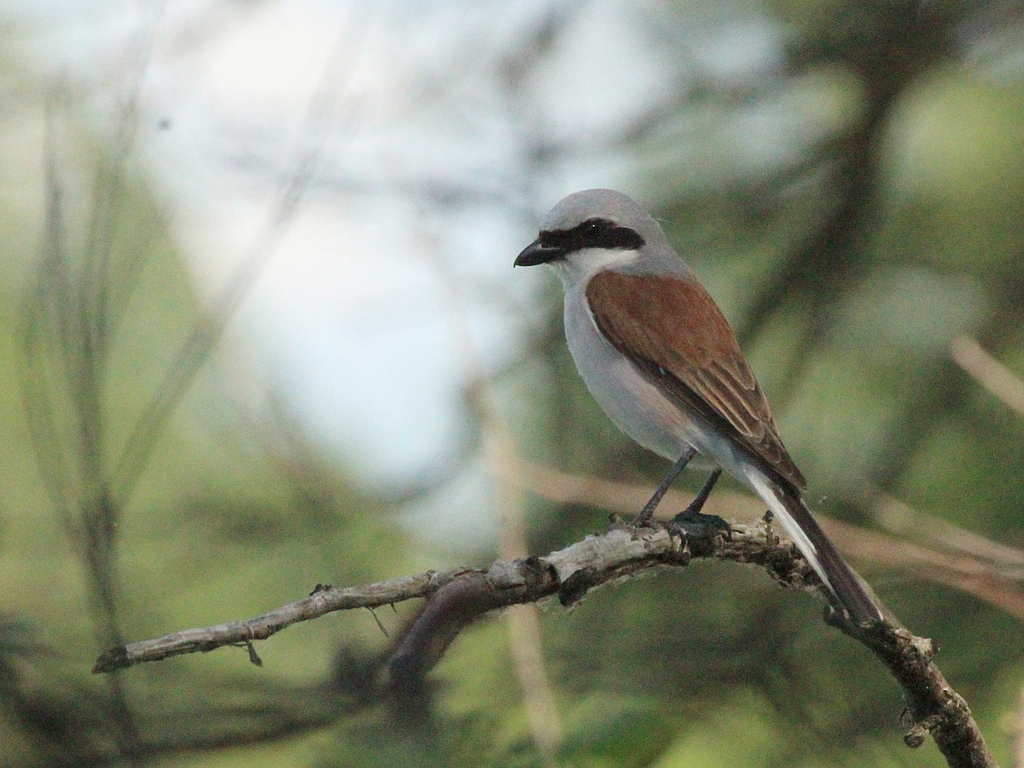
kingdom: Animalia
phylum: Chordata
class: Aves
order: Passeriformes
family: Laniidae
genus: Lanius
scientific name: Lanius collurio
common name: Red-backed shrike
